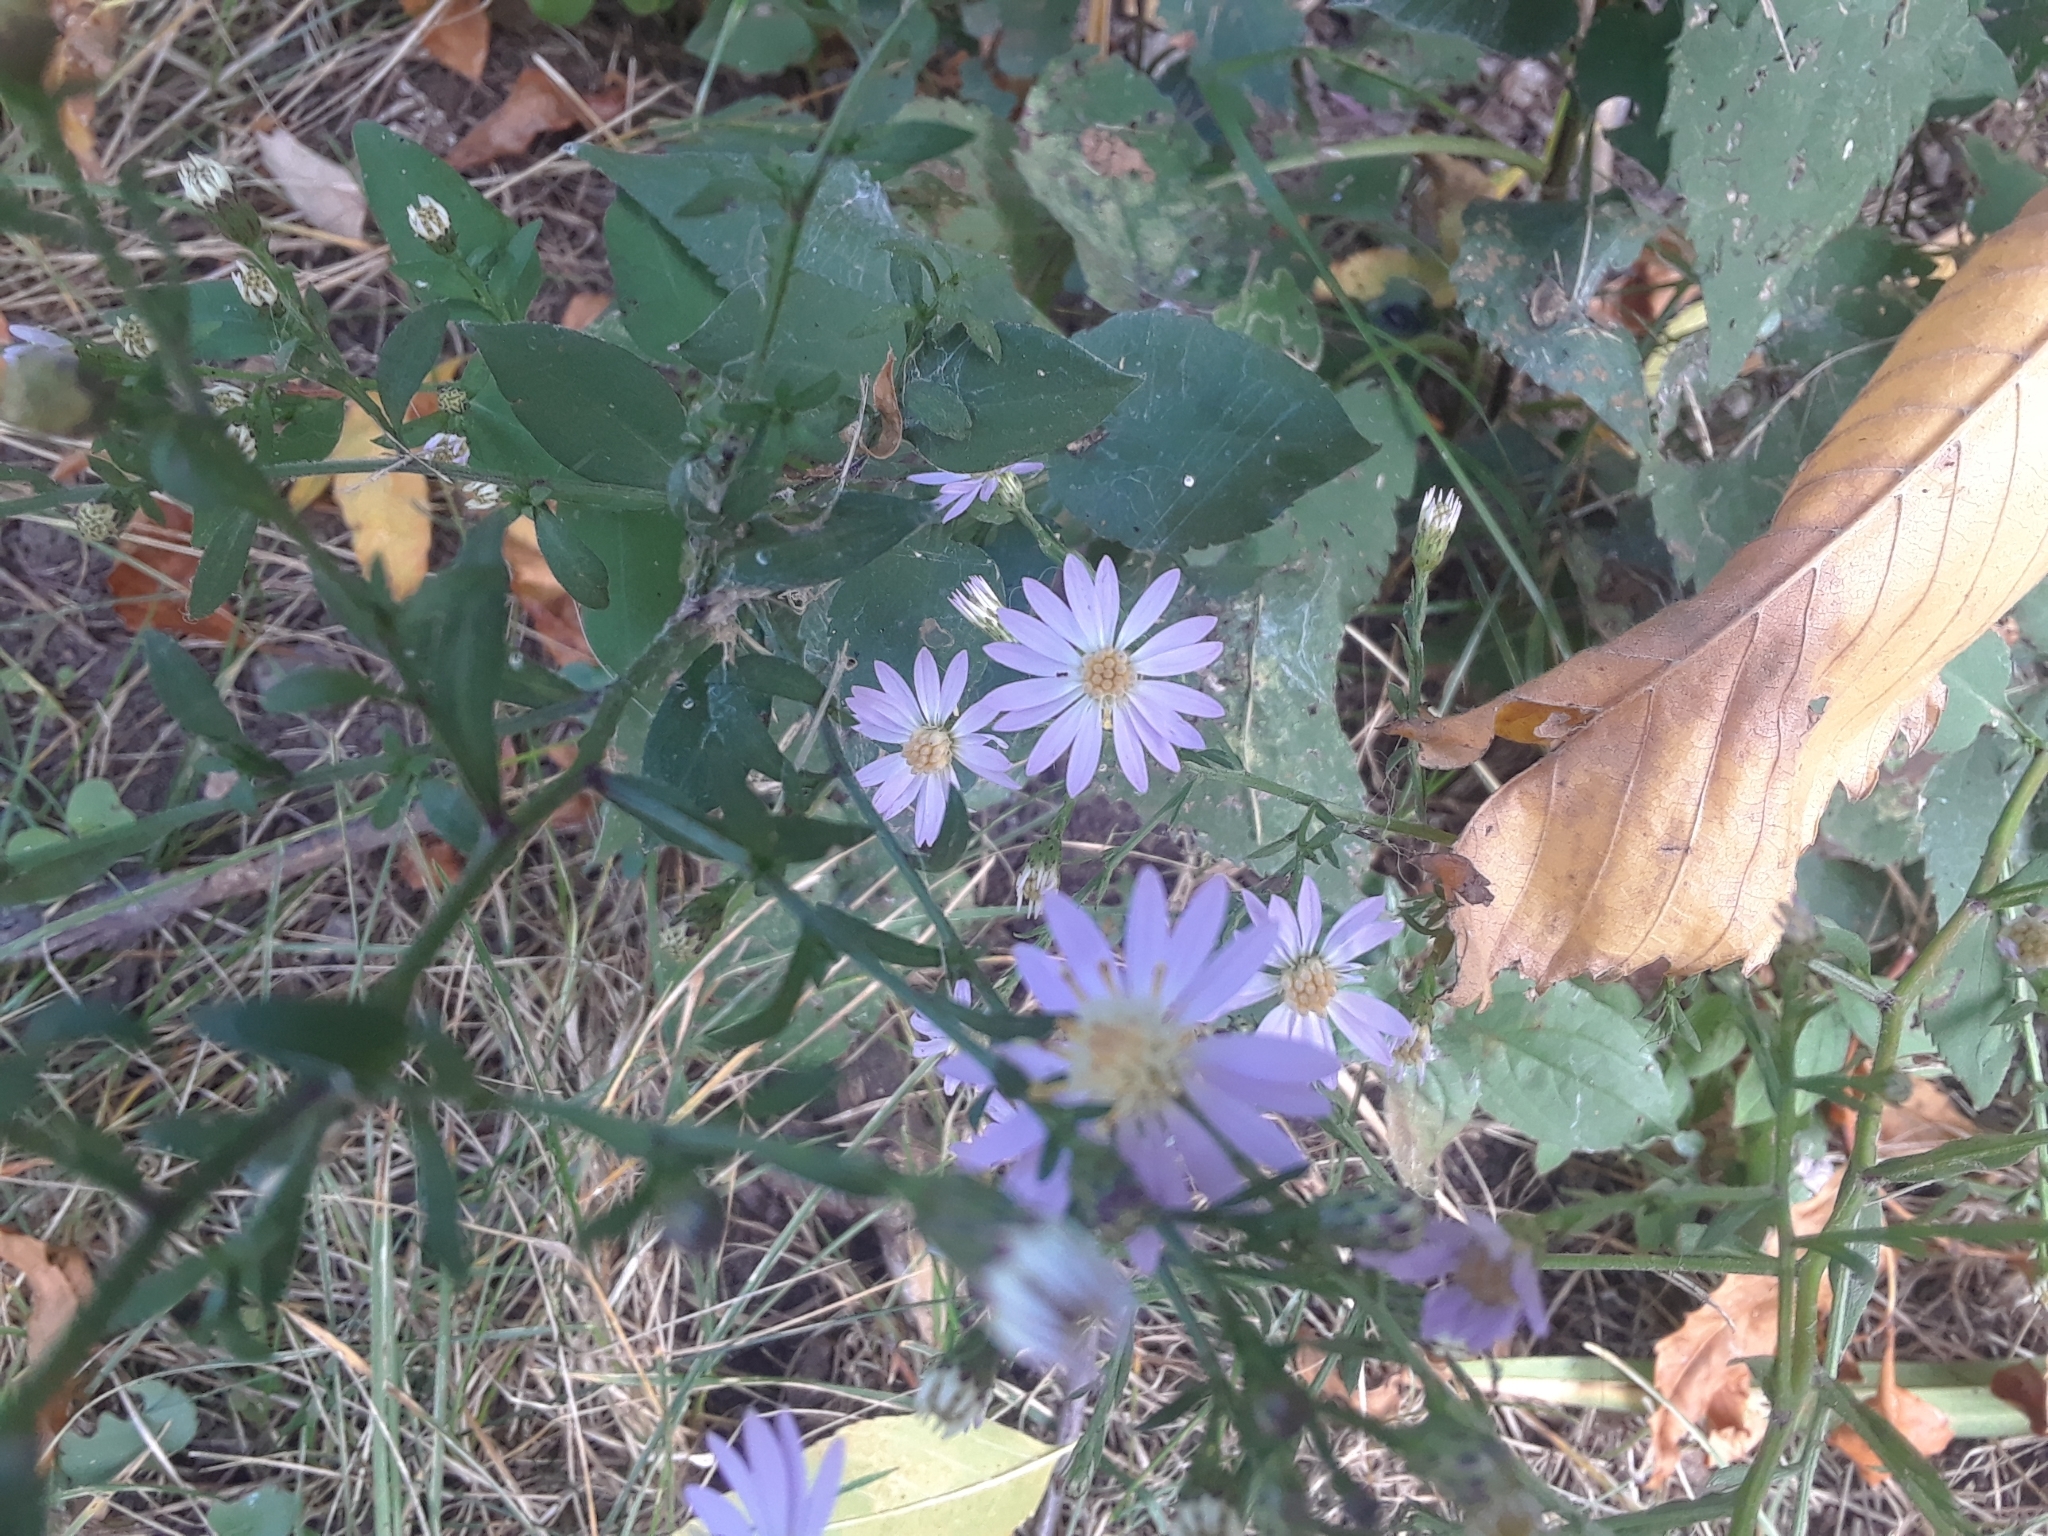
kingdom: Plantae
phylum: Tracheophyta
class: Magnoliopsida
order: Asterales
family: Asteraceae
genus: Symphyotrichum
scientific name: Symphyotrichum cordifolium
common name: Beeweed
